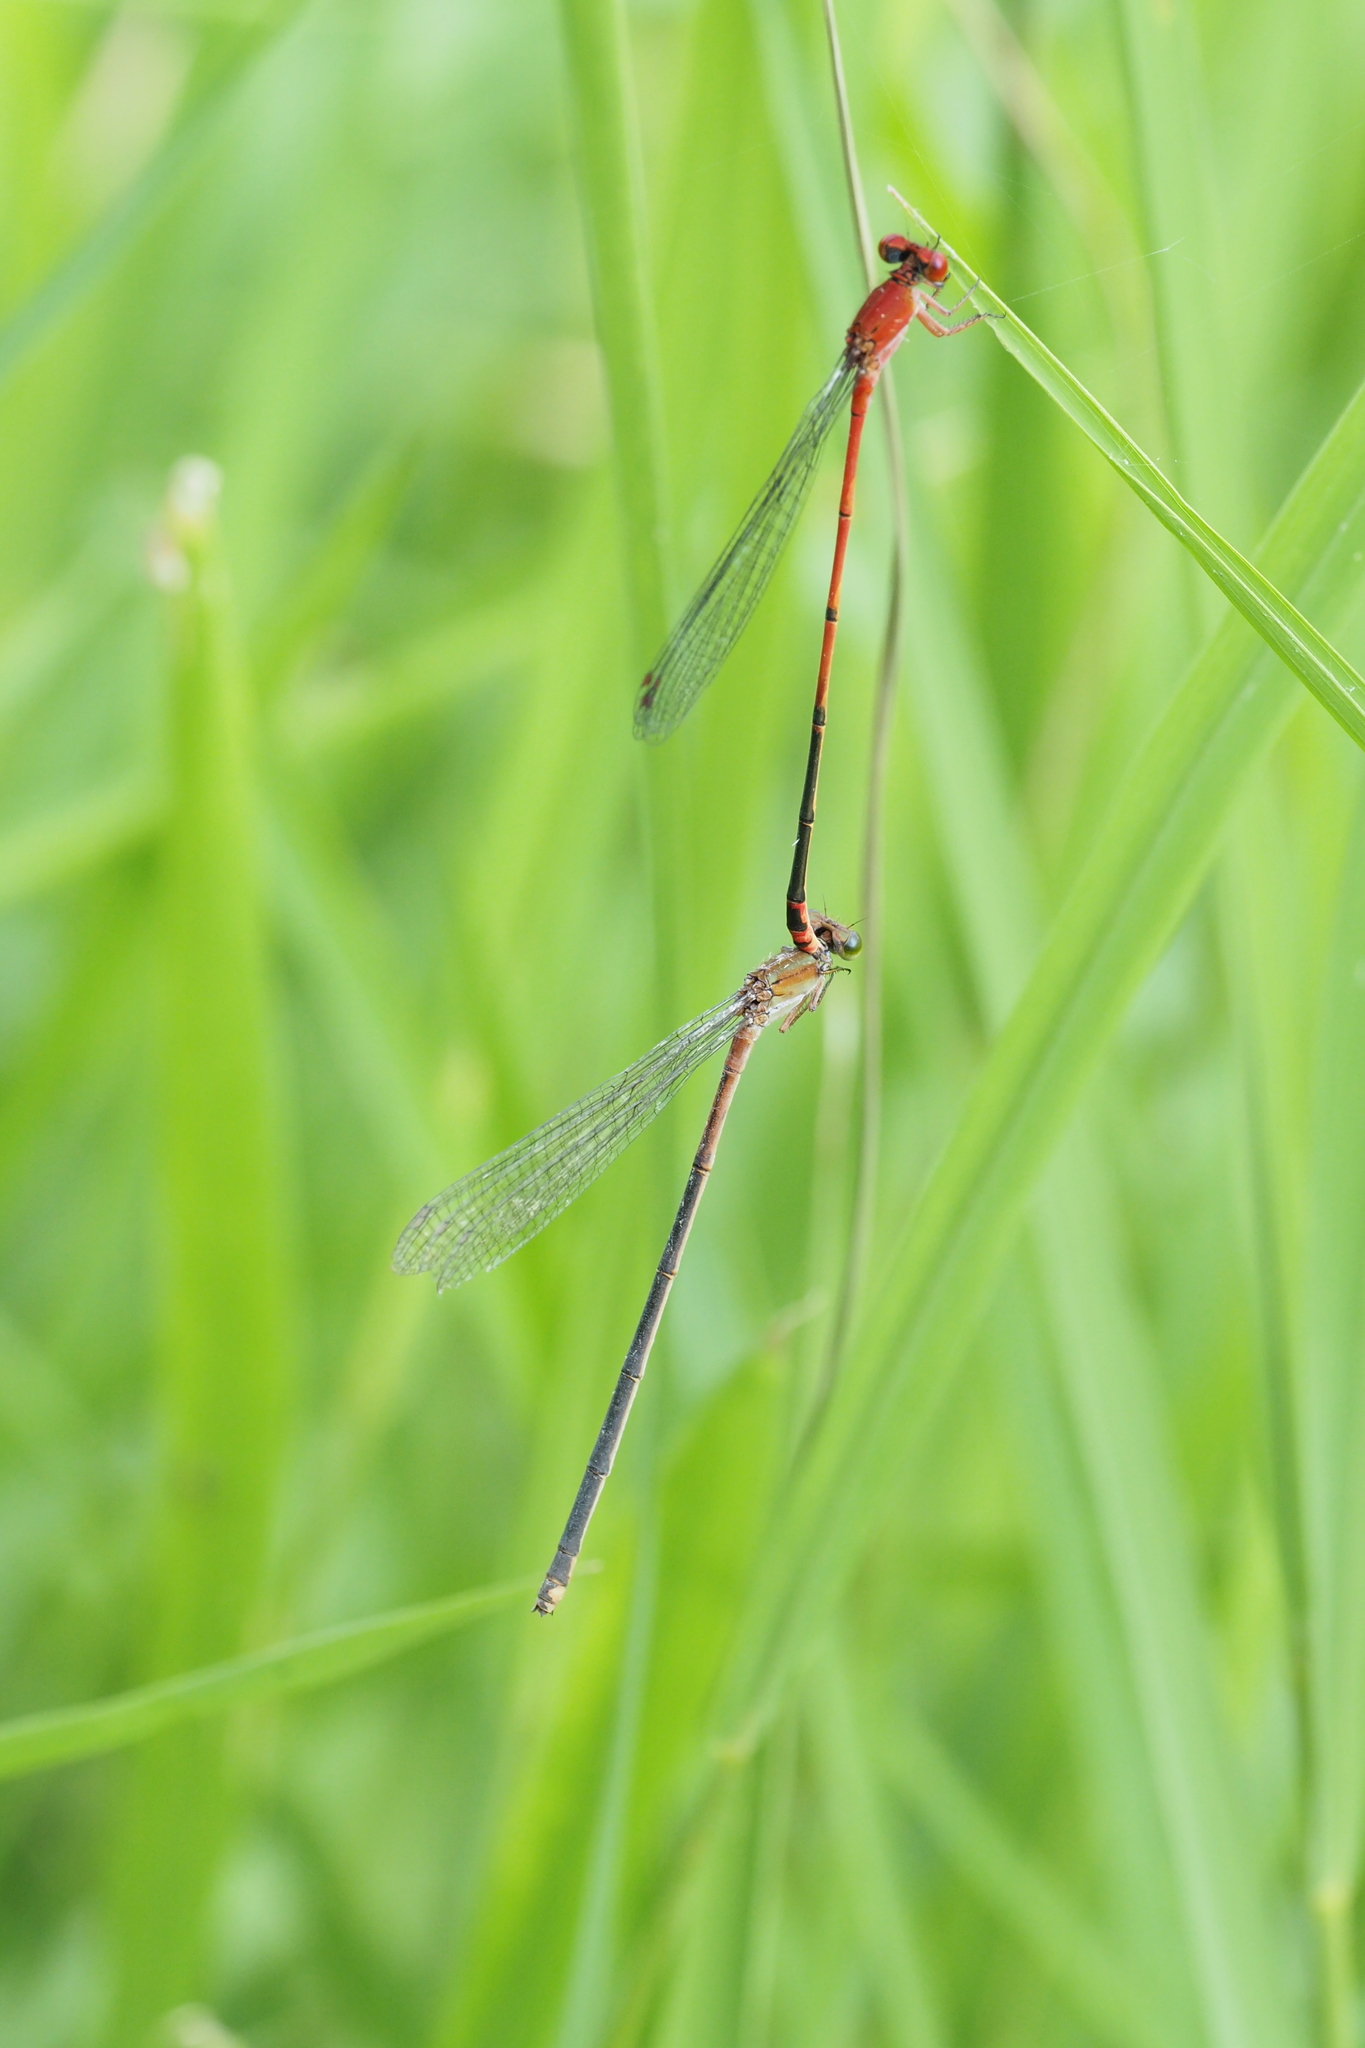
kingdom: Animalia
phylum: Arthropoda
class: Insecta
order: Odonata
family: Coenagrionidae
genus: Pseudagrion
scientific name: Pseudagrion pilidorsum
